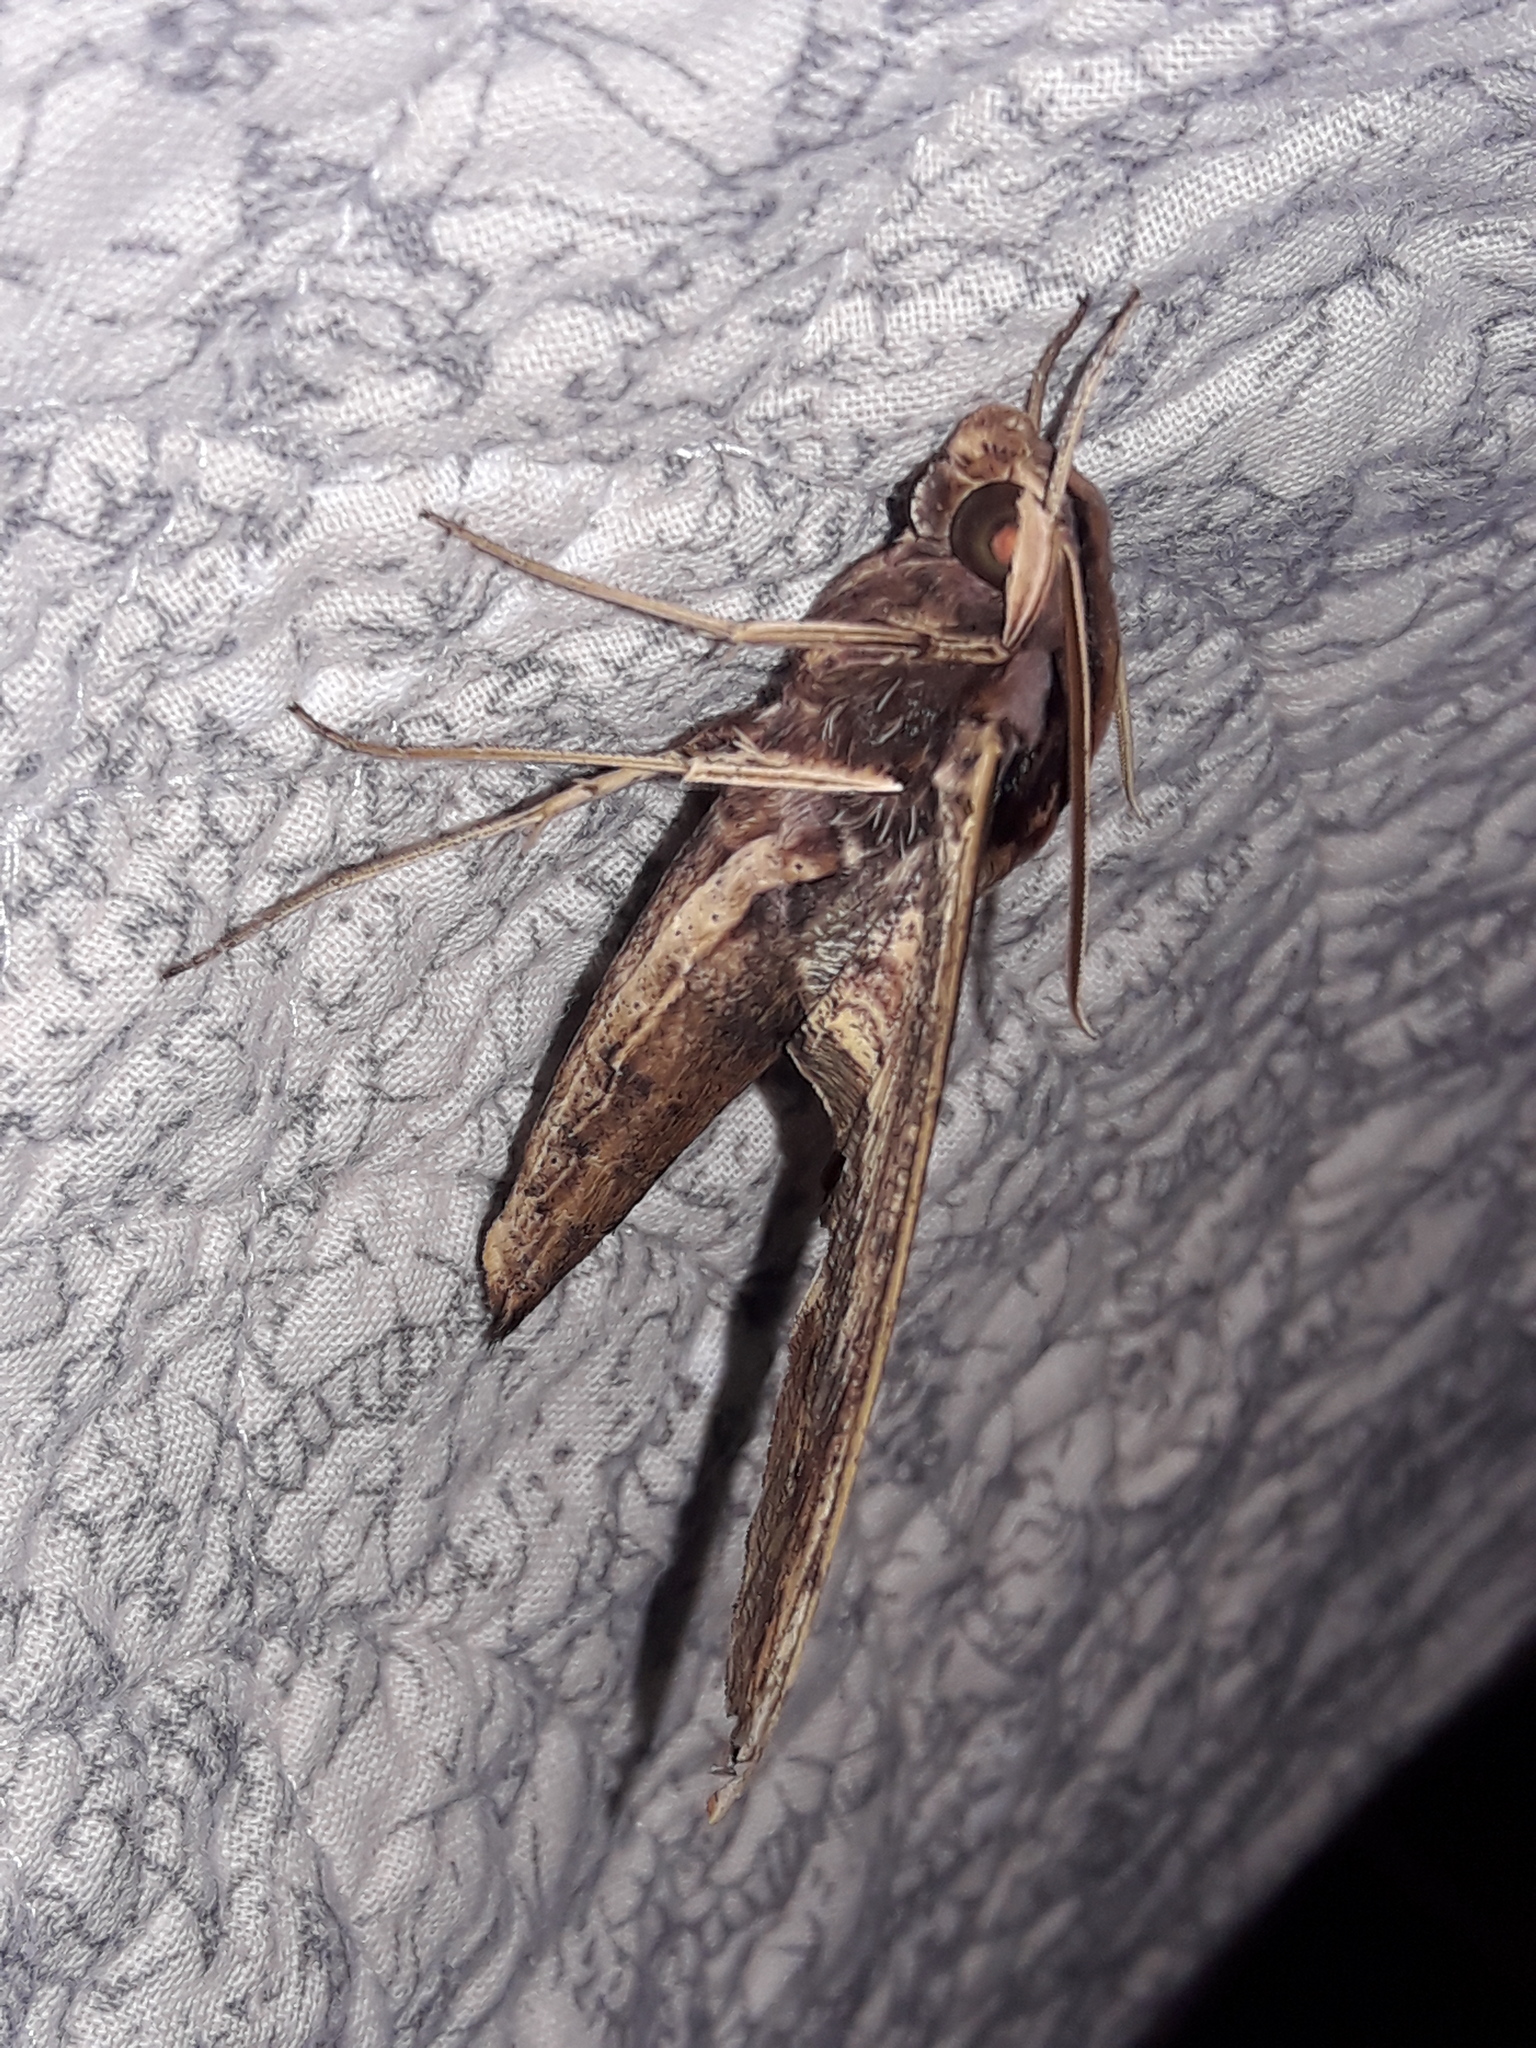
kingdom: Animalia
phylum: Arthropoda
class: Insecta
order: Lepidoptera
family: Sphingidae
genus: Xylophanes
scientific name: Xylophanes ceratomioides
